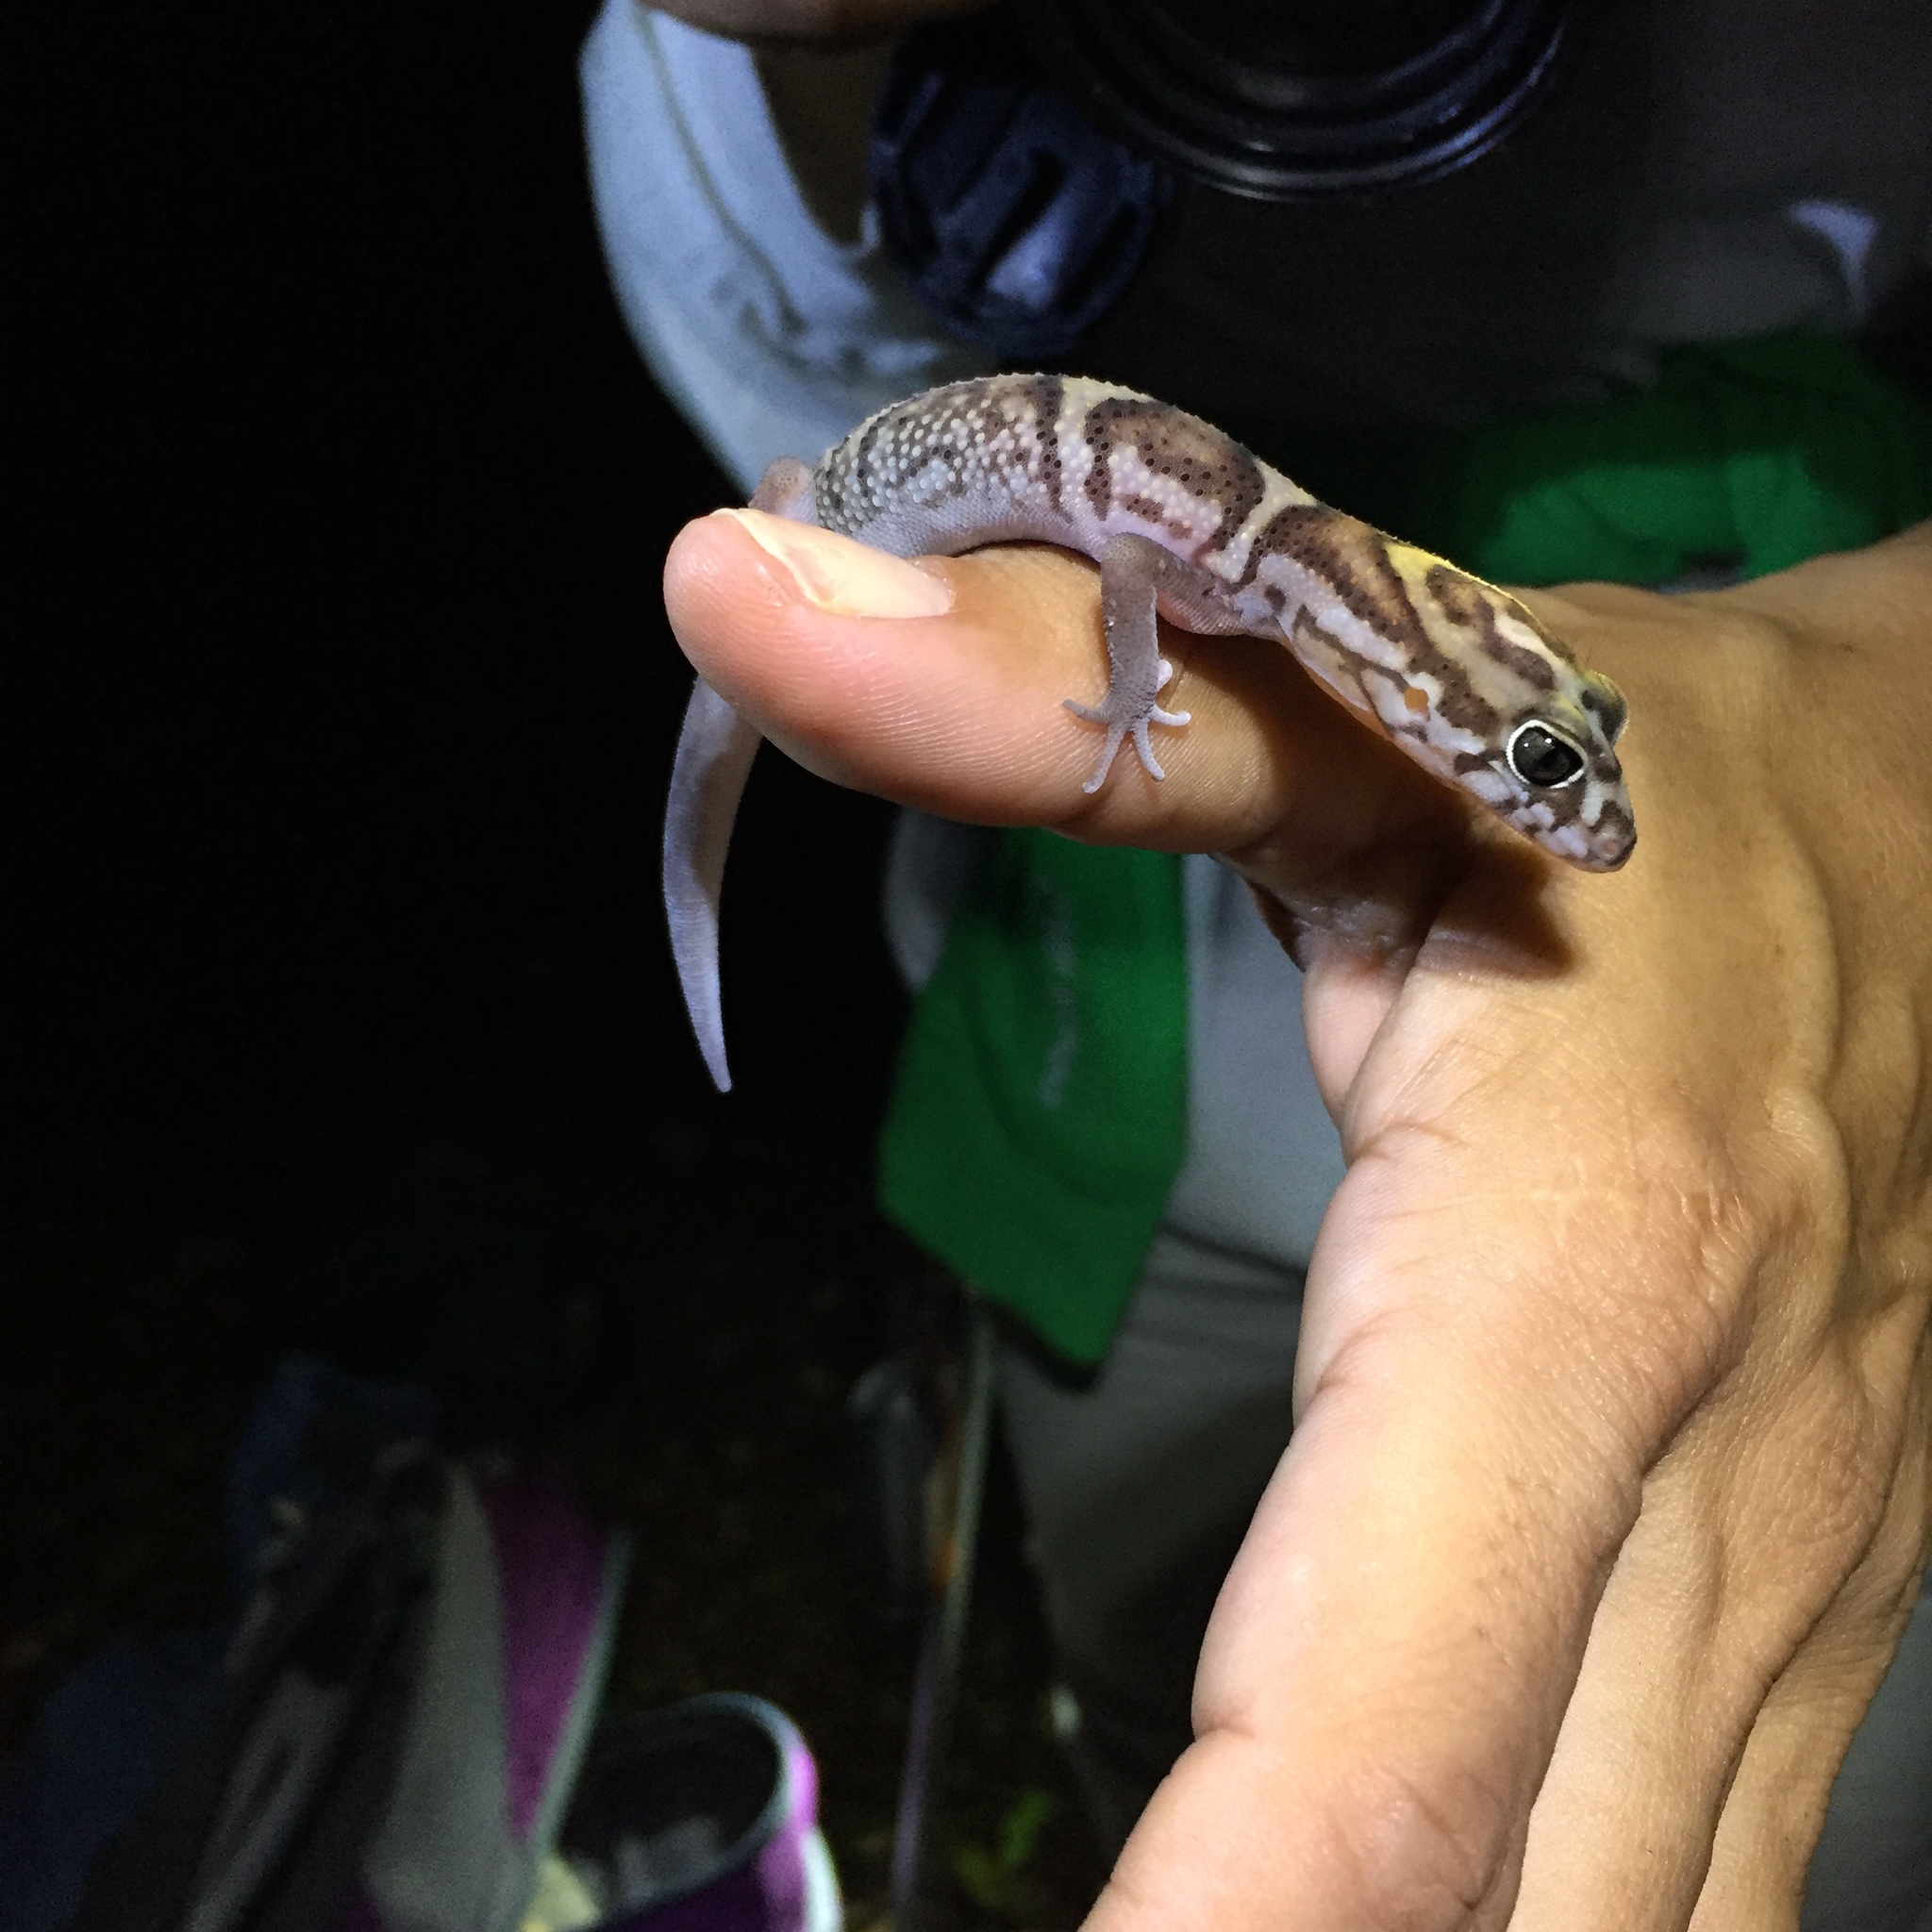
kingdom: Animalia
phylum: Chordata
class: Squamata
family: Eublepharidae
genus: Coleonyx
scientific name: Coleonyx elegans
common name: Yucatan banded gecko
